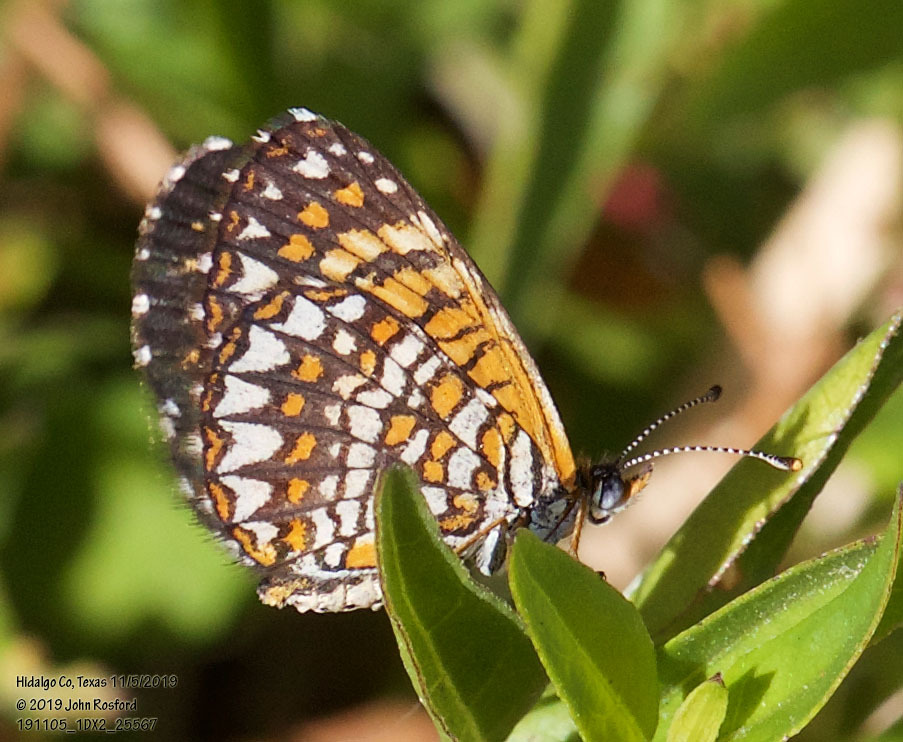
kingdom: Animalia
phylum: Arthropoda
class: Insecta
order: Lepidoptera
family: Nymphalidae
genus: Texola
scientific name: Texola elada
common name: Elada checkerspot
